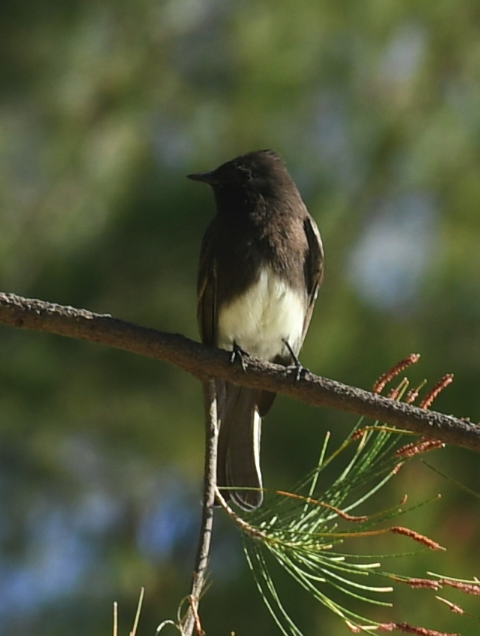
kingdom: Animalia
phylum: Chordata
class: Aves
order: Passeriformes
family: Tyrannidae
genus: Sayornis
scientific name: Sayornis nigricans
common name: Black phoebe
